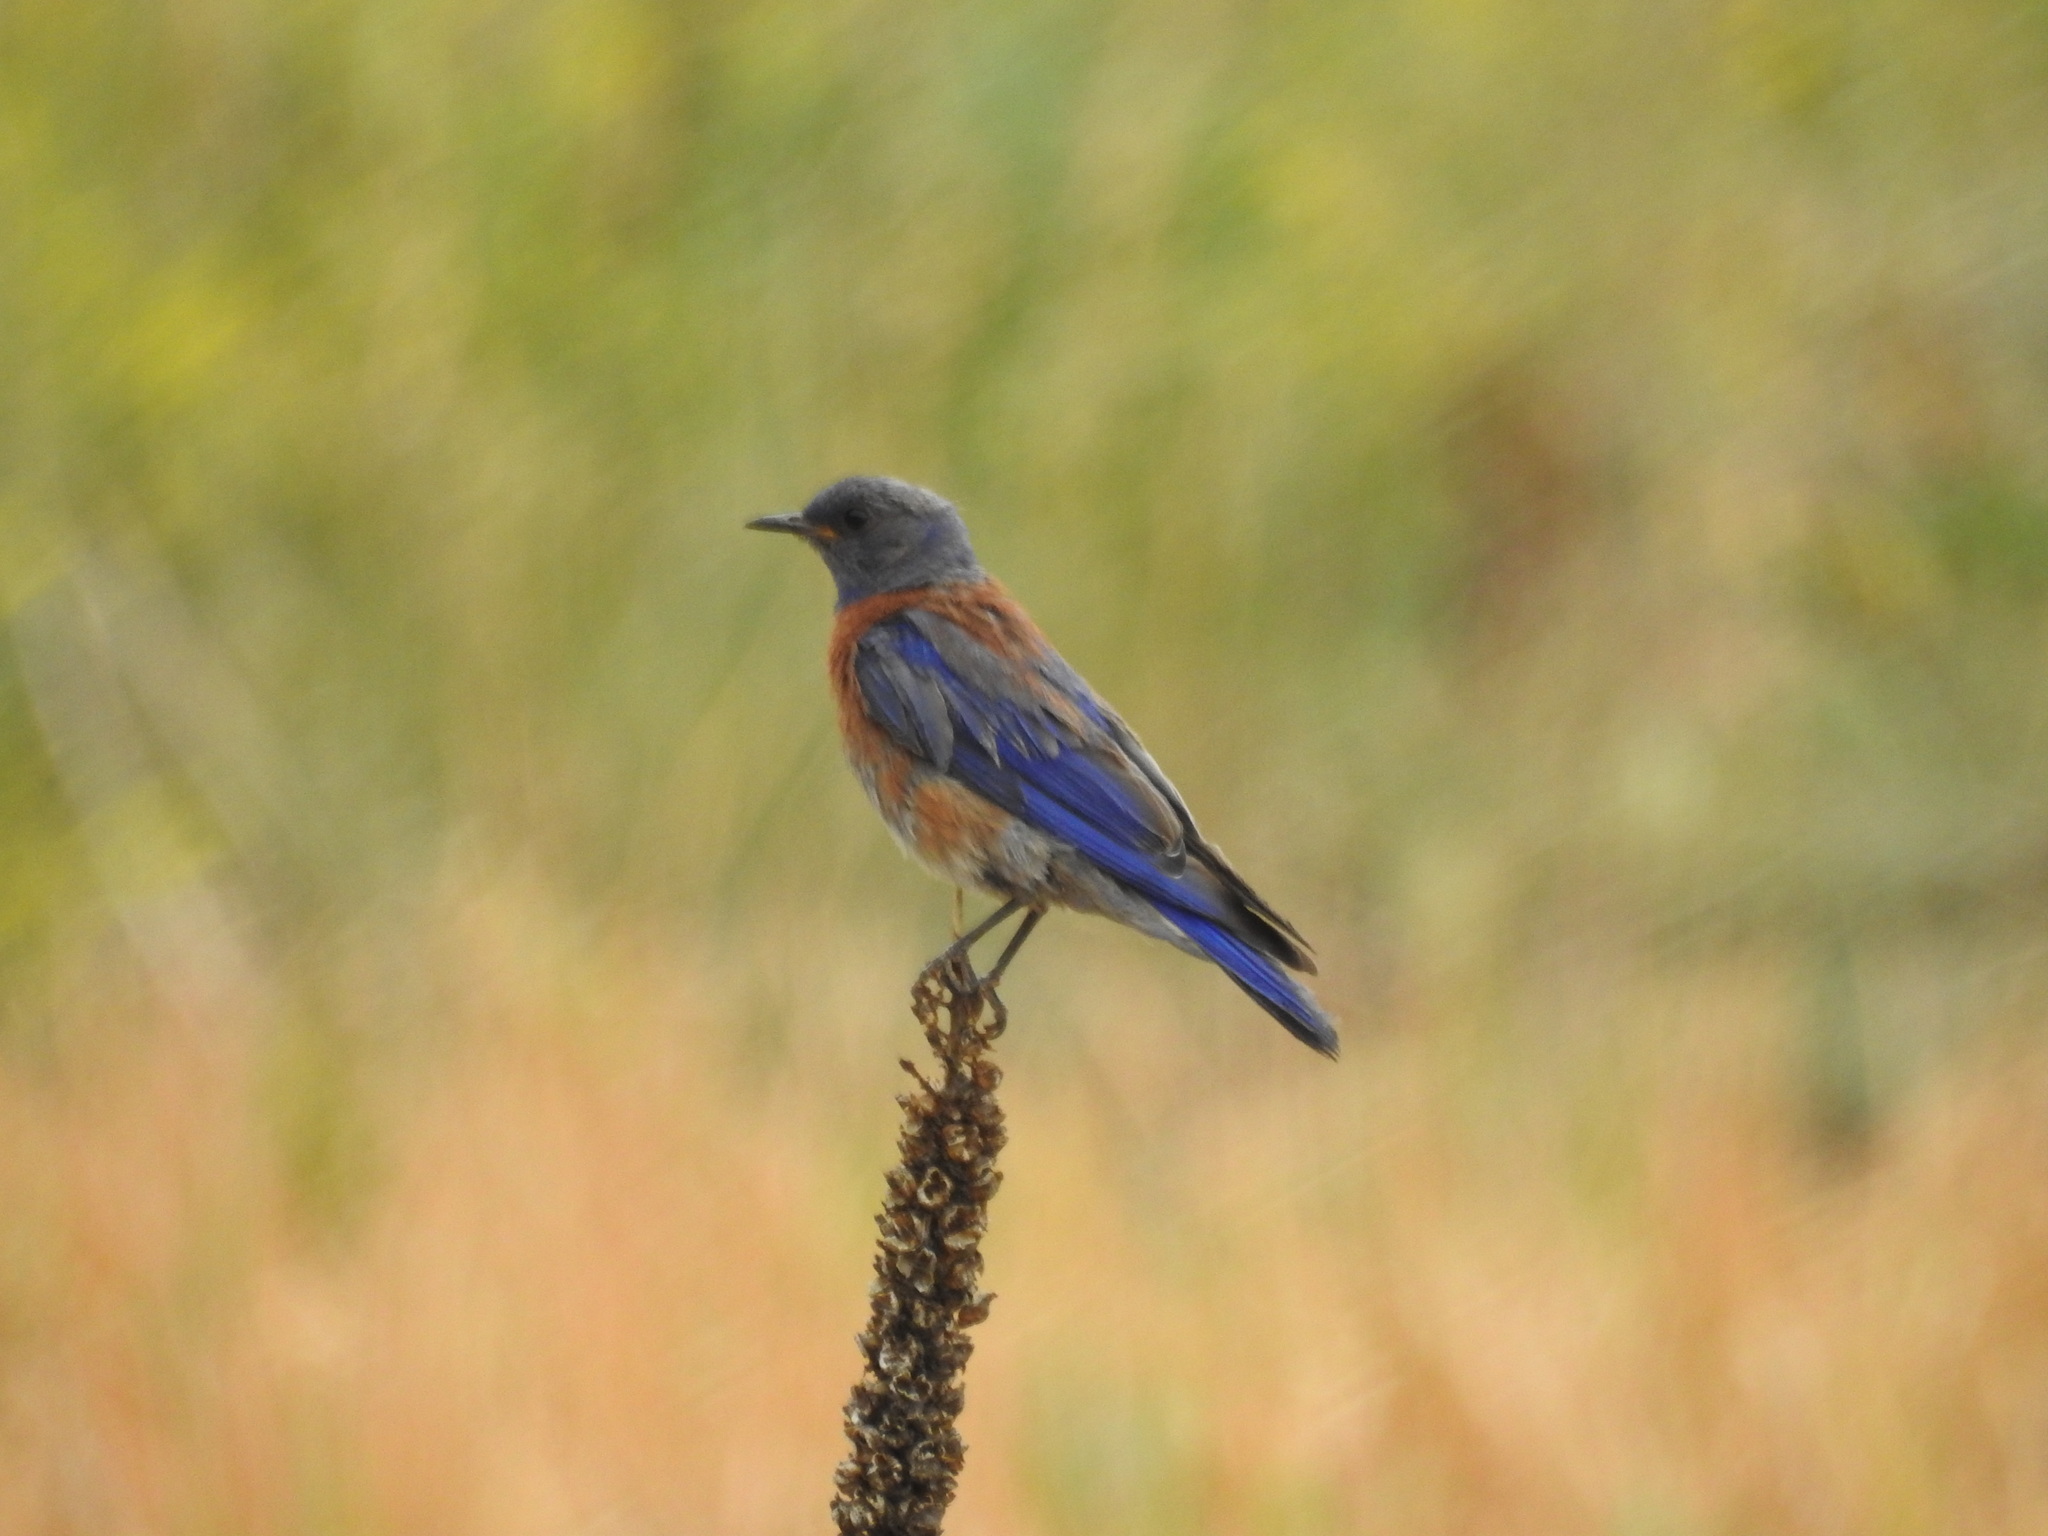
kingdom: Animalia
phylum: Chordata
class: Aves
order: Passeriformes
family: Turdidae
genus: Sialia
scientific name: Sialia mexicana
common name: Western bluebird
